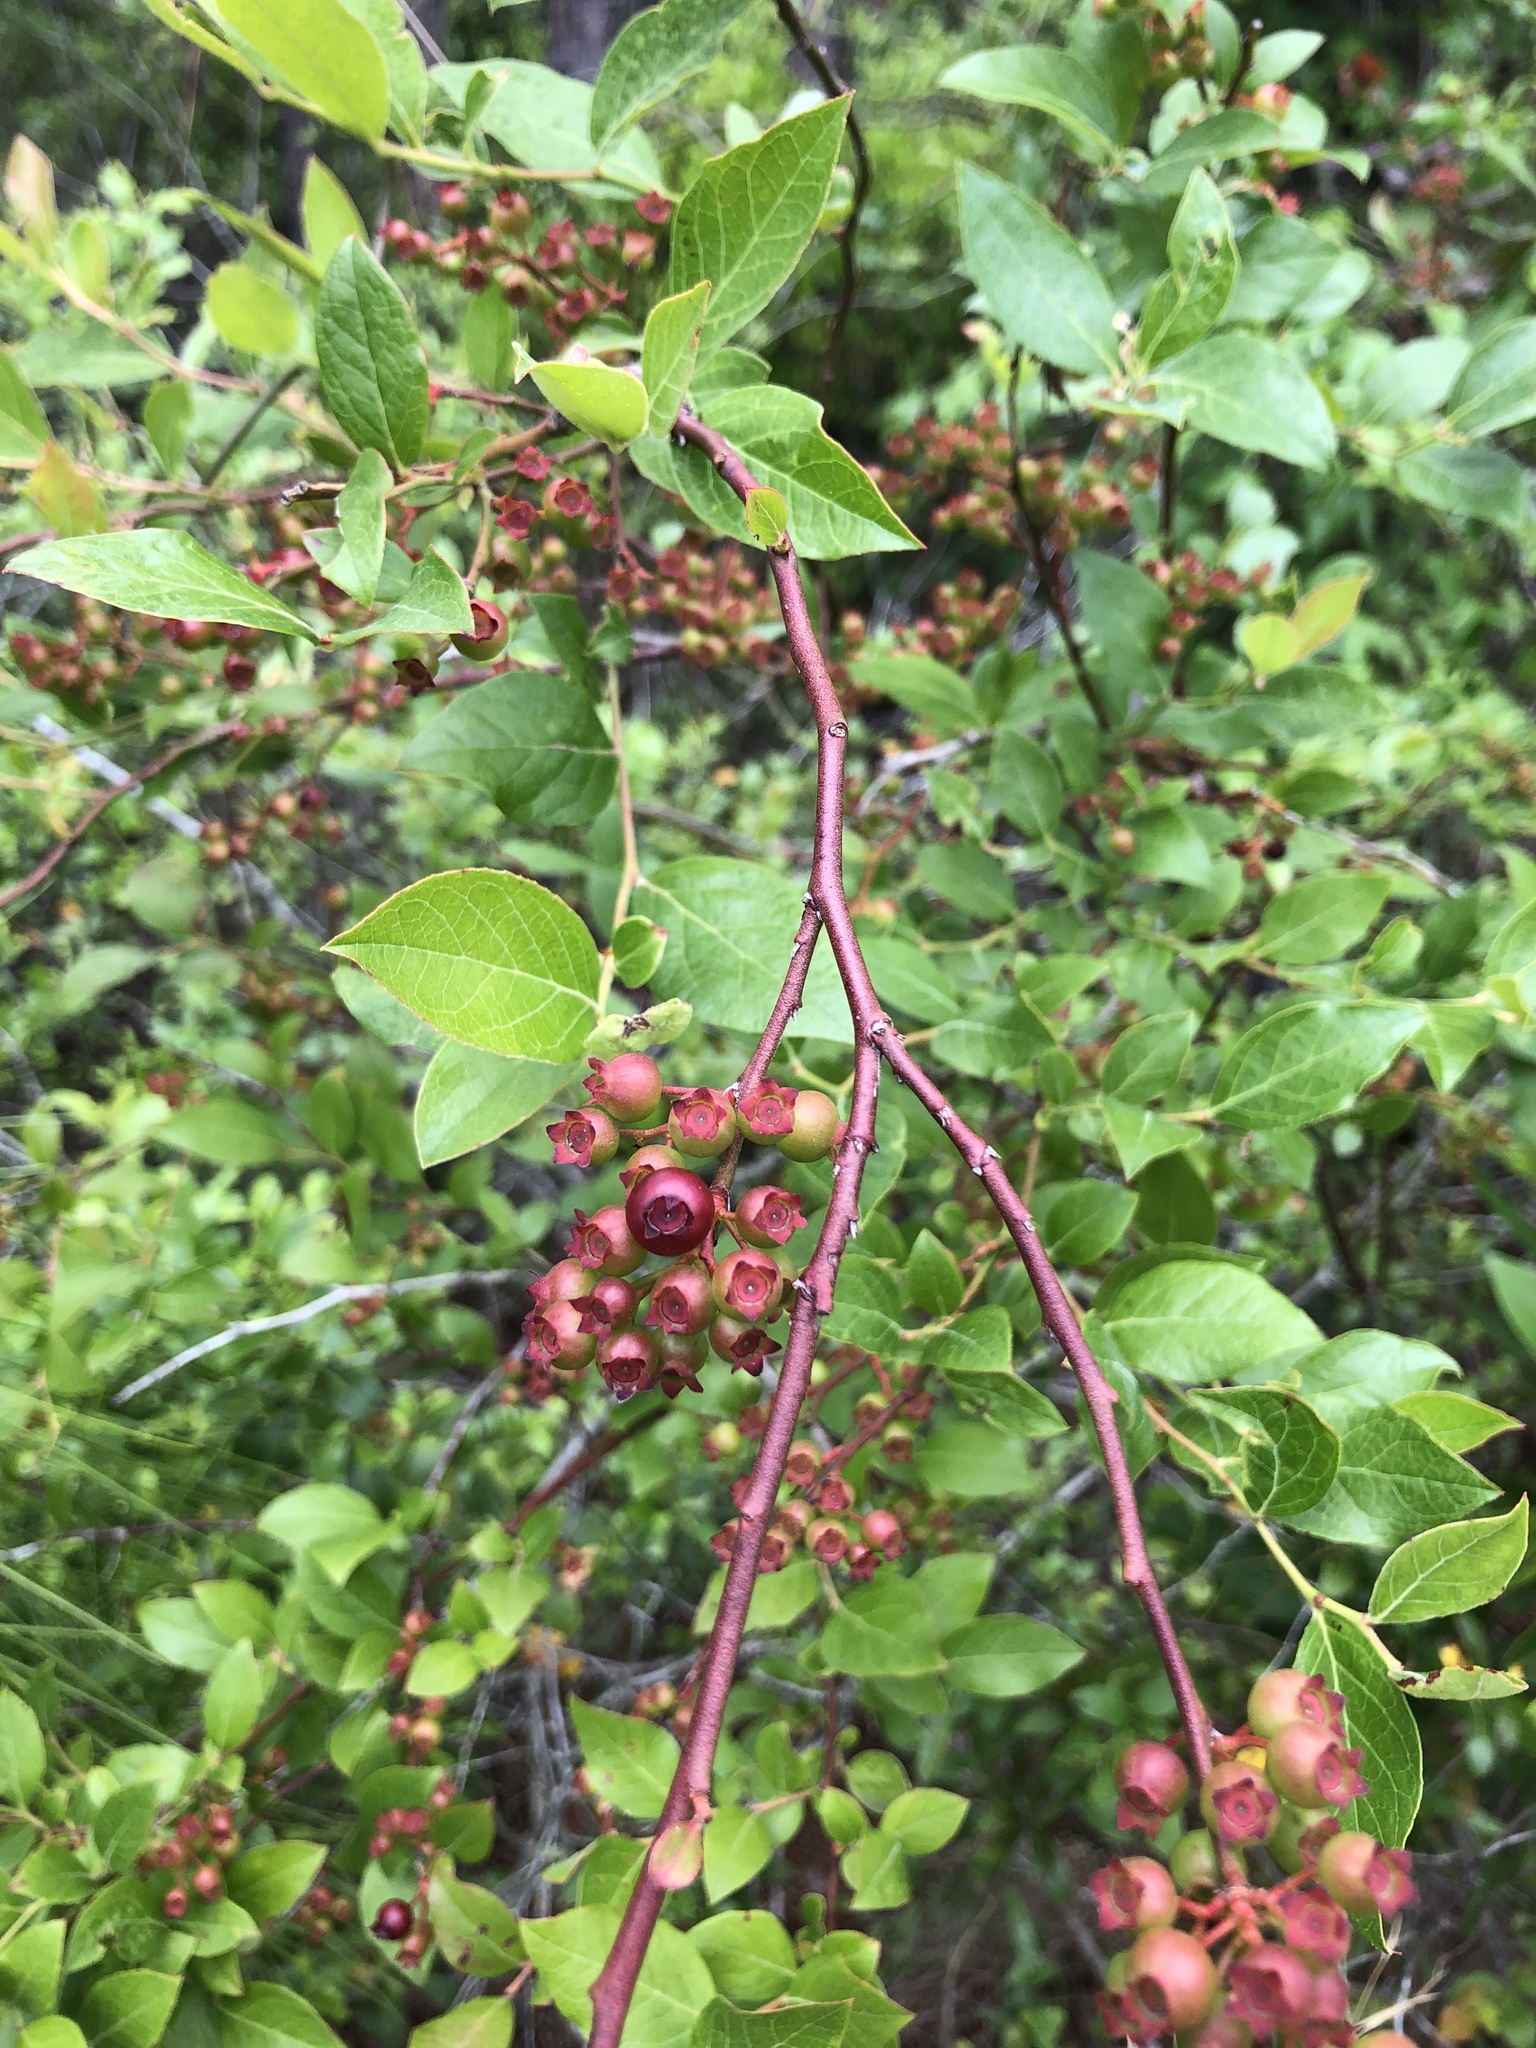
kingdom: Plantae
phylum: Tracheophyta
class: Magnoliopsida
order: Ericales
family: Ericaceae
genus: Vaccinium
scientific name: Vaccinium corymbosum
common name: Blueberry
